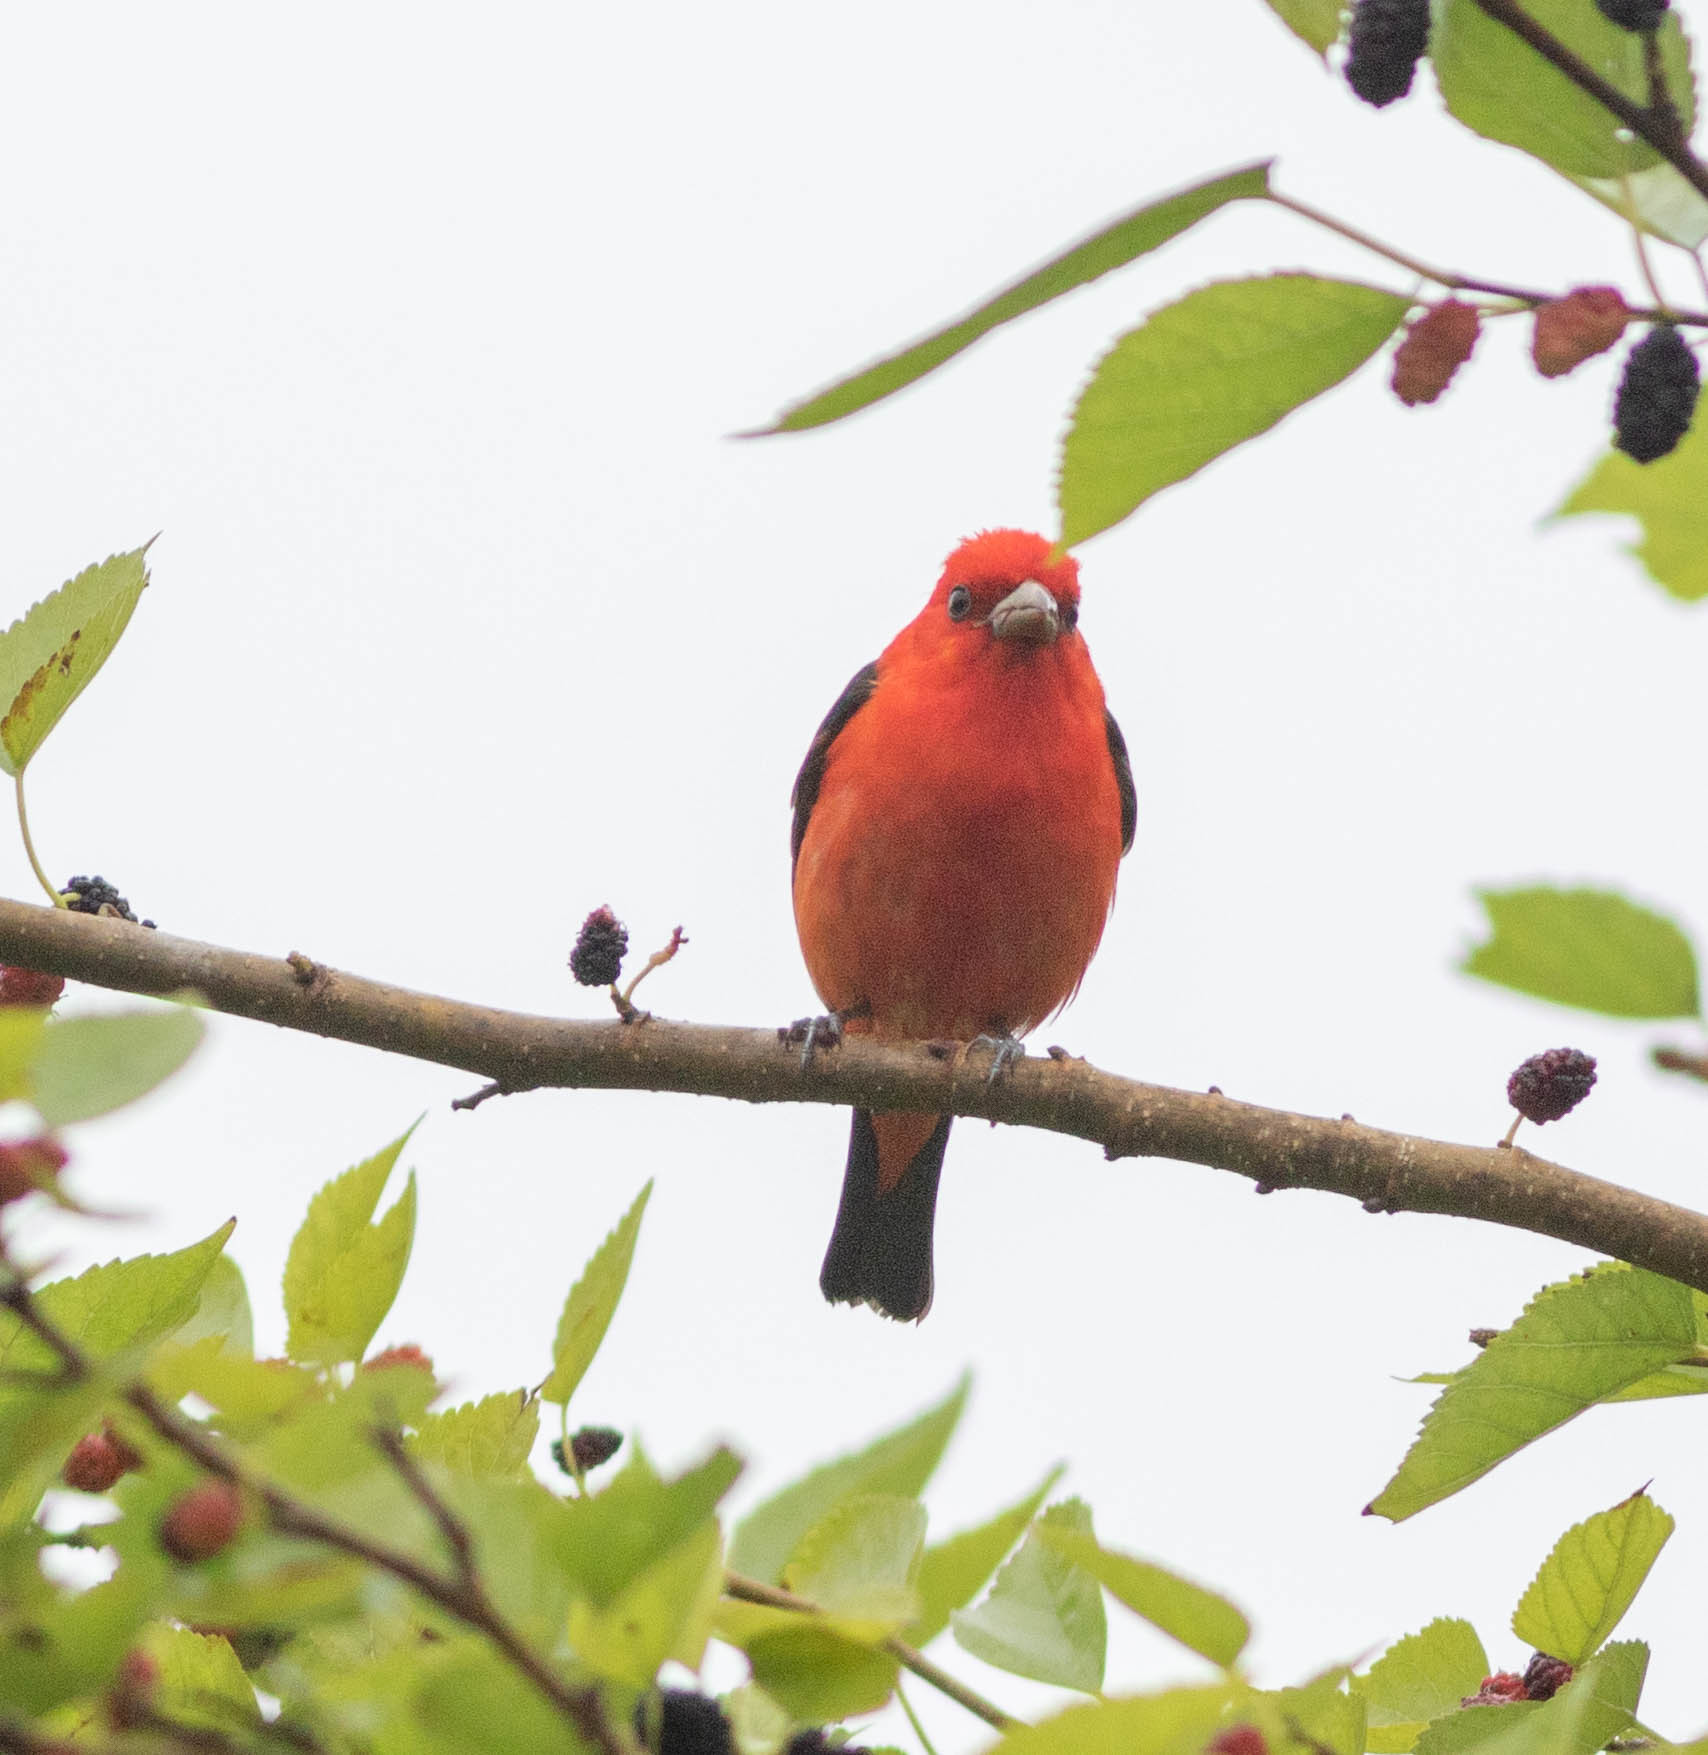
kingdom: Animalia
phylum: Chordata
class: Aves
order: Passeriformes
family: Cardinalidae
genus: Piranga
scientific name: Piranga olivacea
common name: Scarlet tanager
